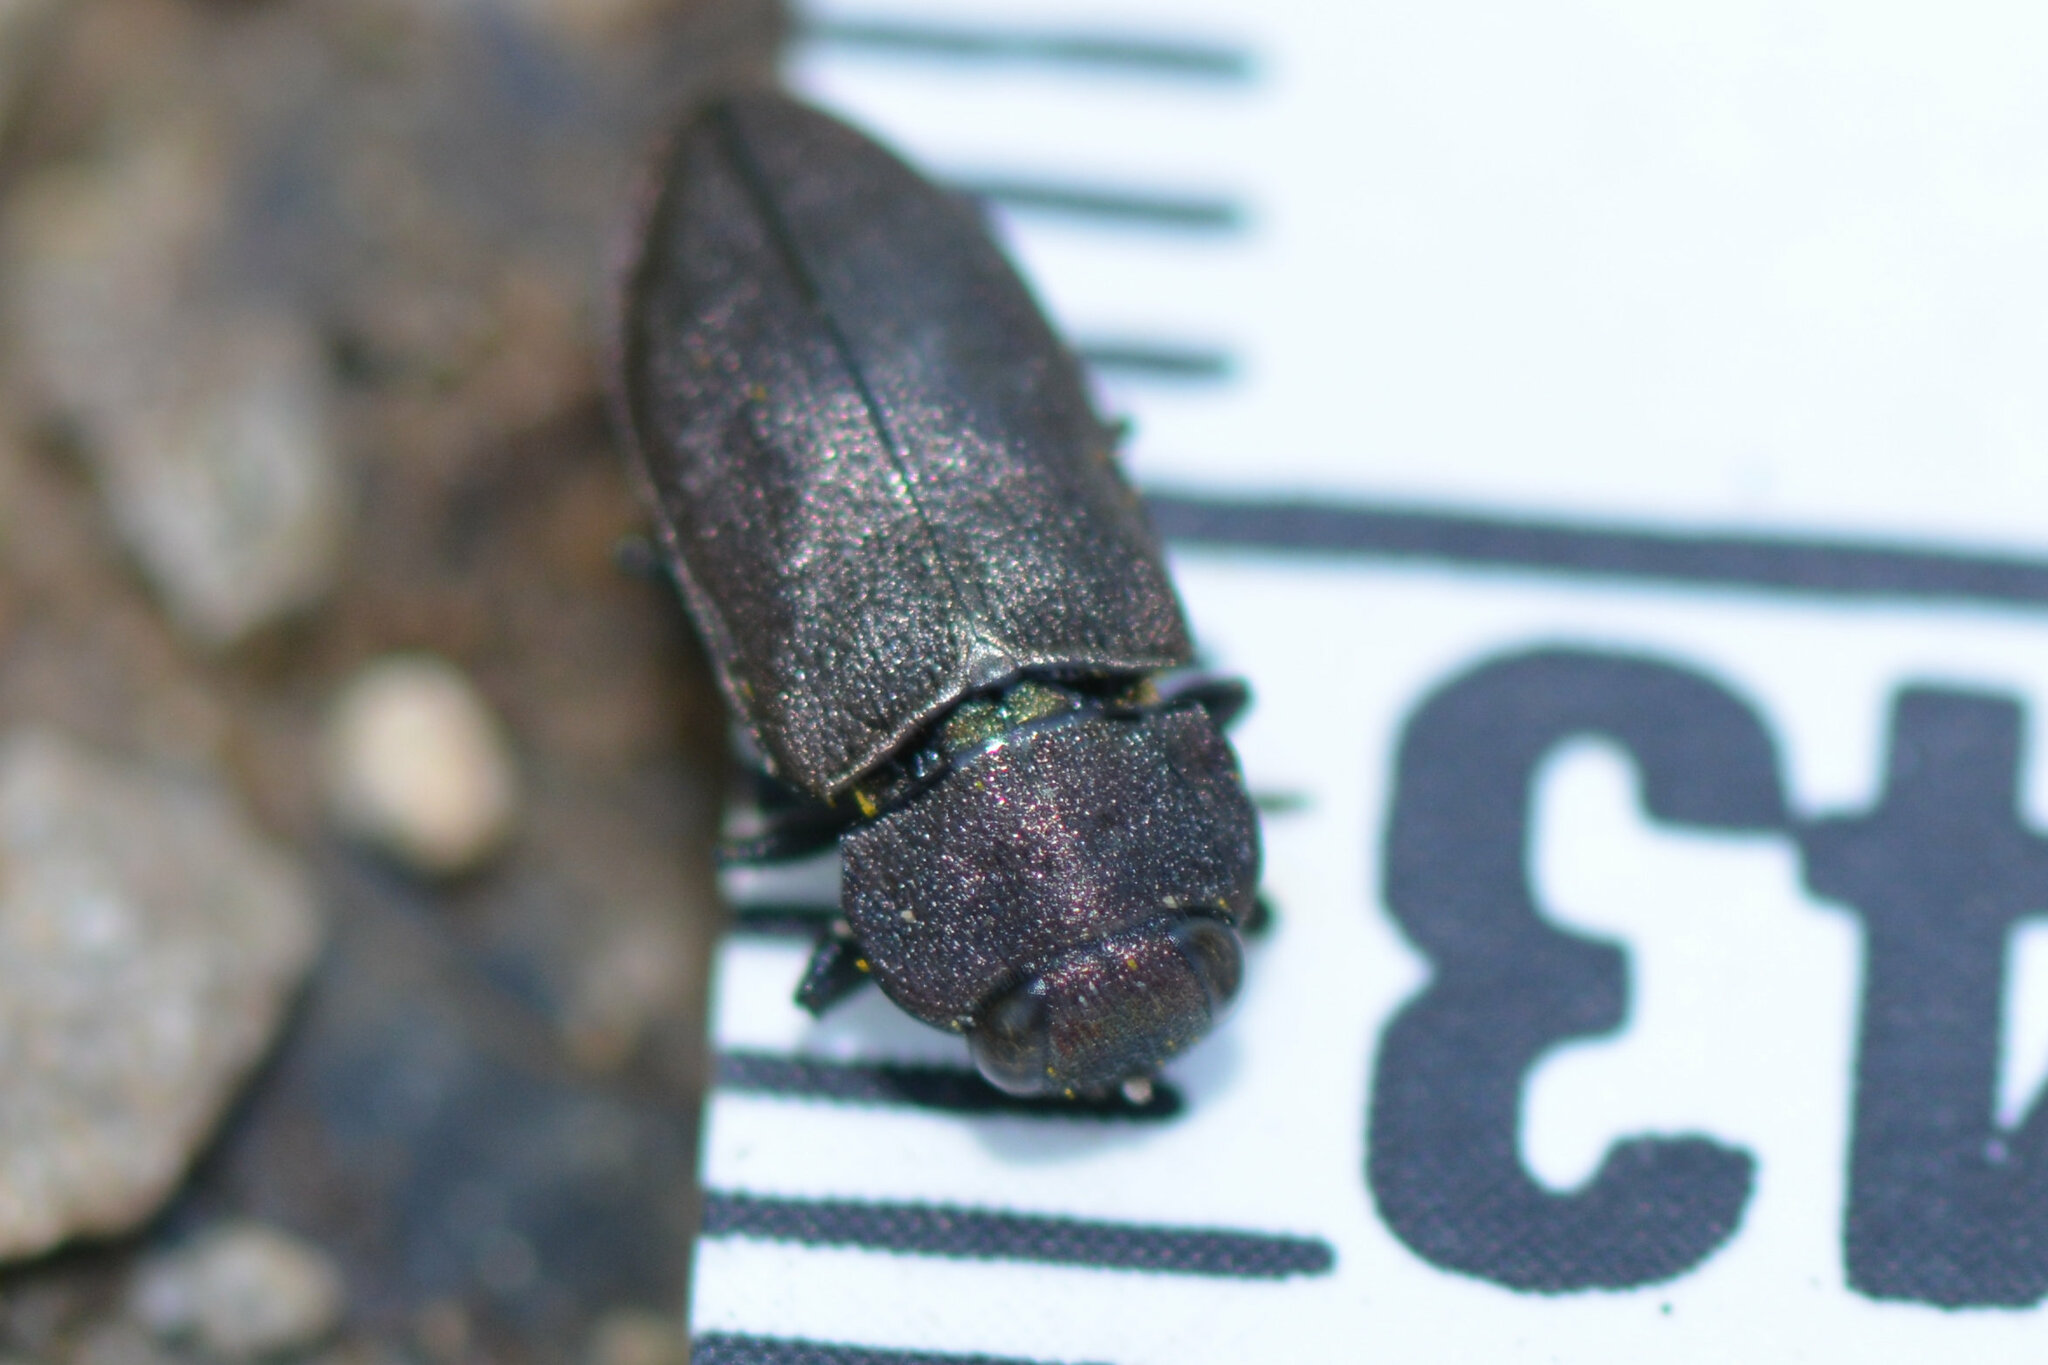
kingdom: Animalia
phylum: Arthropoda
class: Insecta
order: Coleoptera
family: Buprestidae
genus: Anthaxia
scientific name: Anthaxia helvetica
